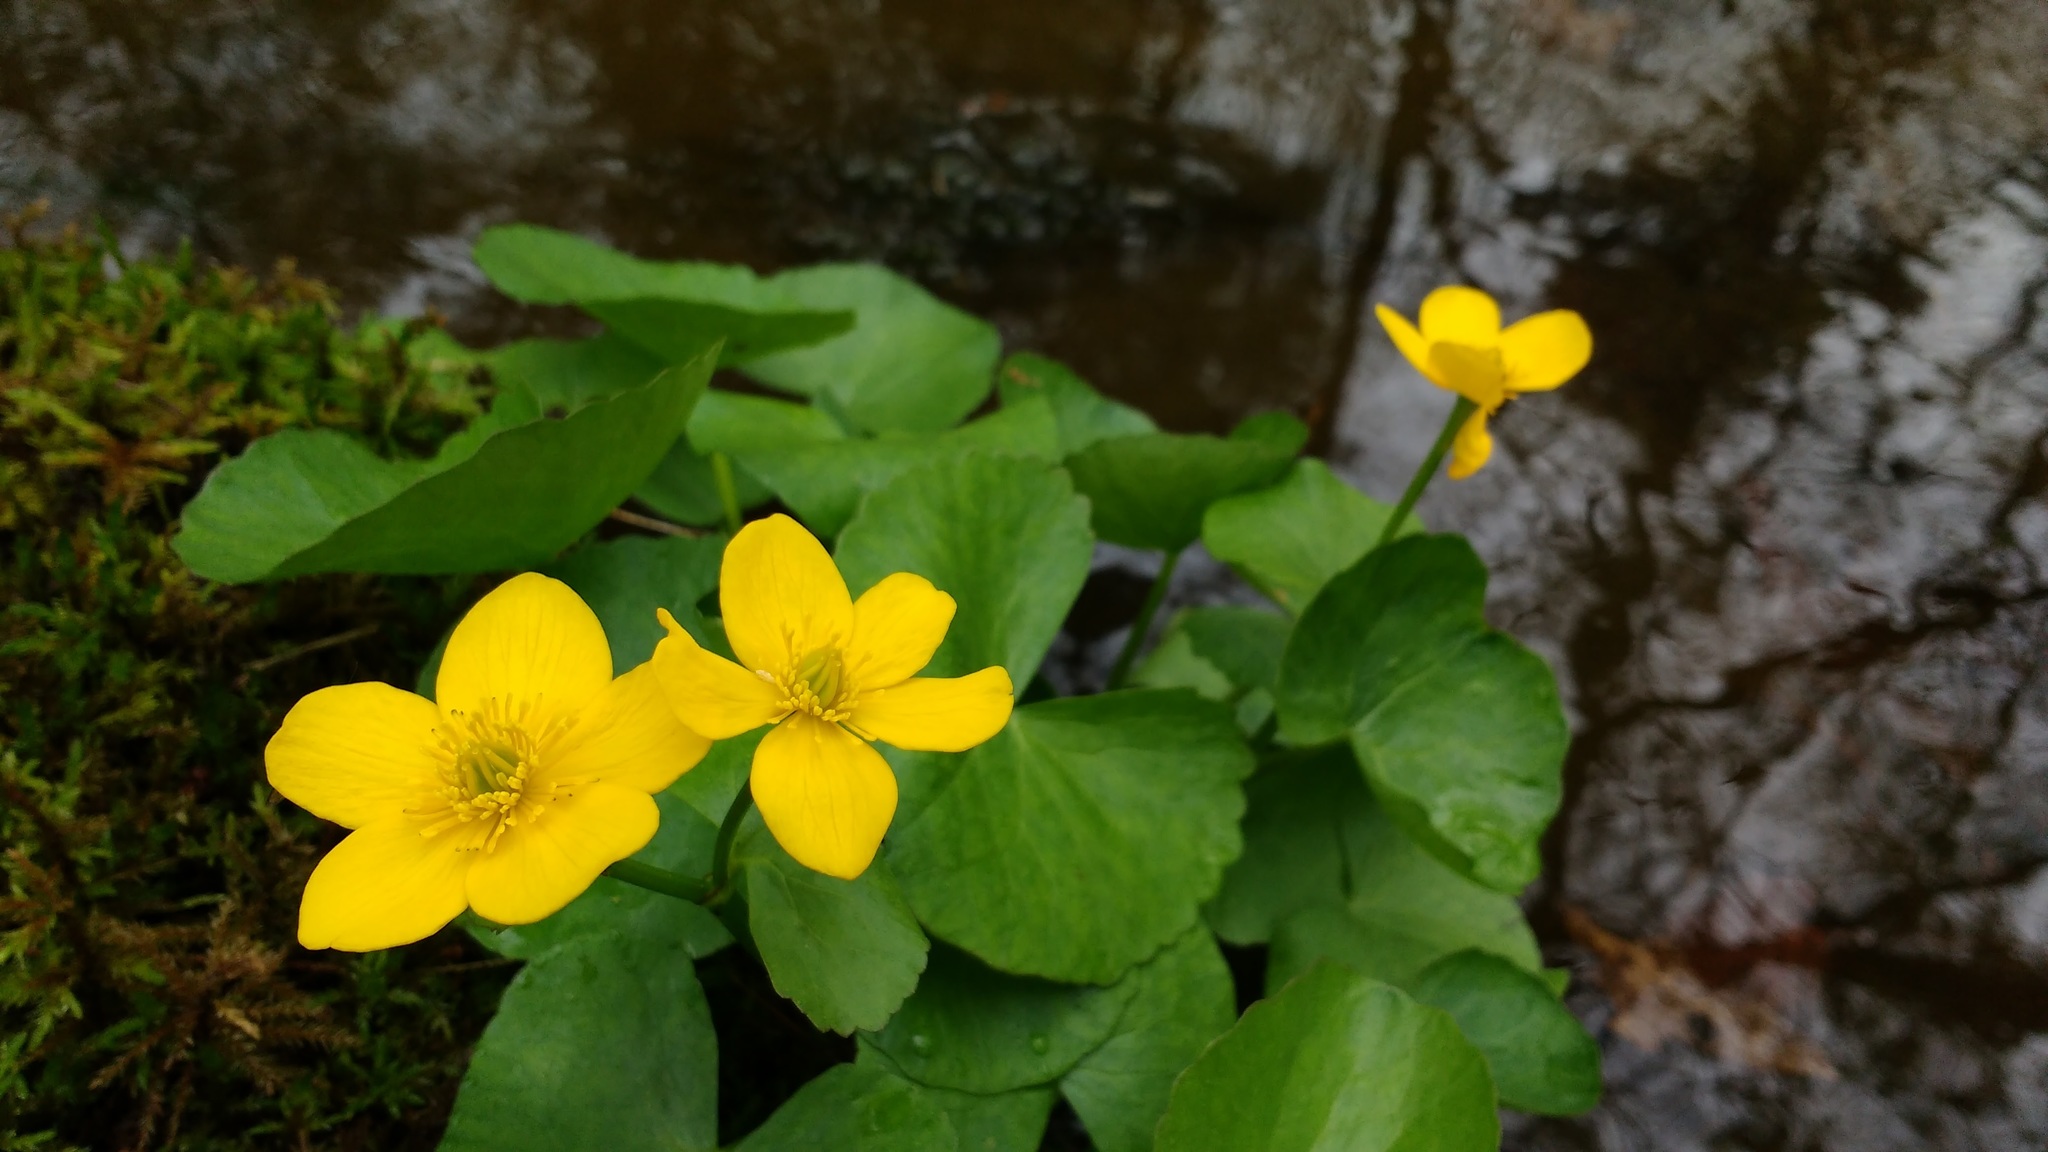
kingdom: Plantae
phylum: Tracheophyta
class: Magnoliopsida
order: Ranunculales
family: Ranunculaceae
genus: Caltha
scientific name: Caltha palustris
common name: Marsh marigold
